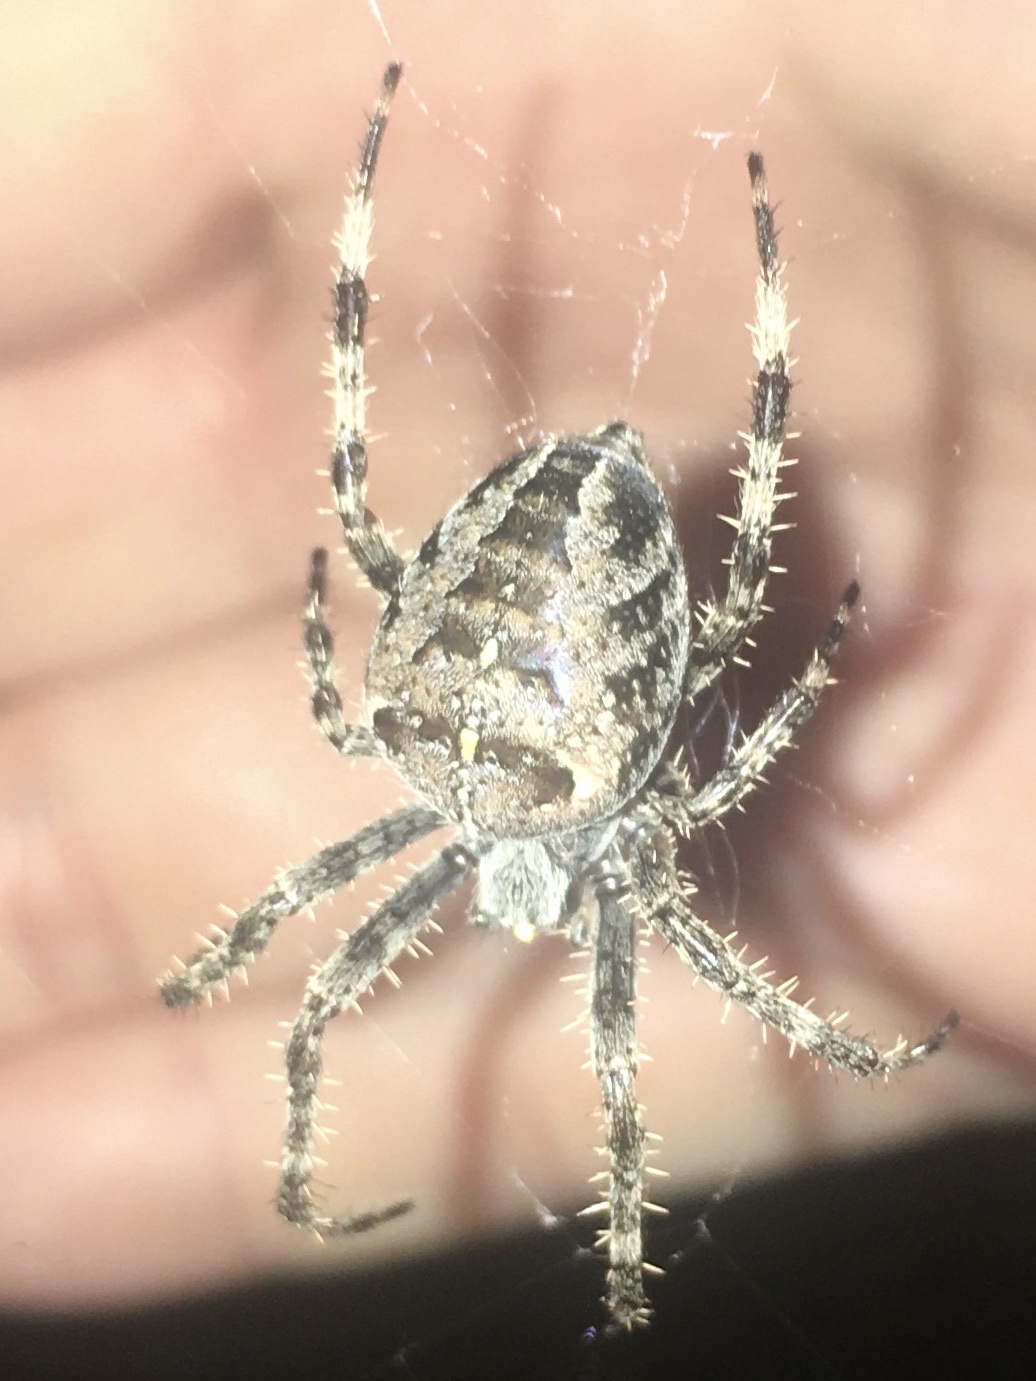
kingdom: Animalia
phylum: Arthropoda
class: Arachnida
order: Araneae
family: Araneidae
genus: Araneus
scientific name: Araneus diadematus
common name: Cross orbweaver
